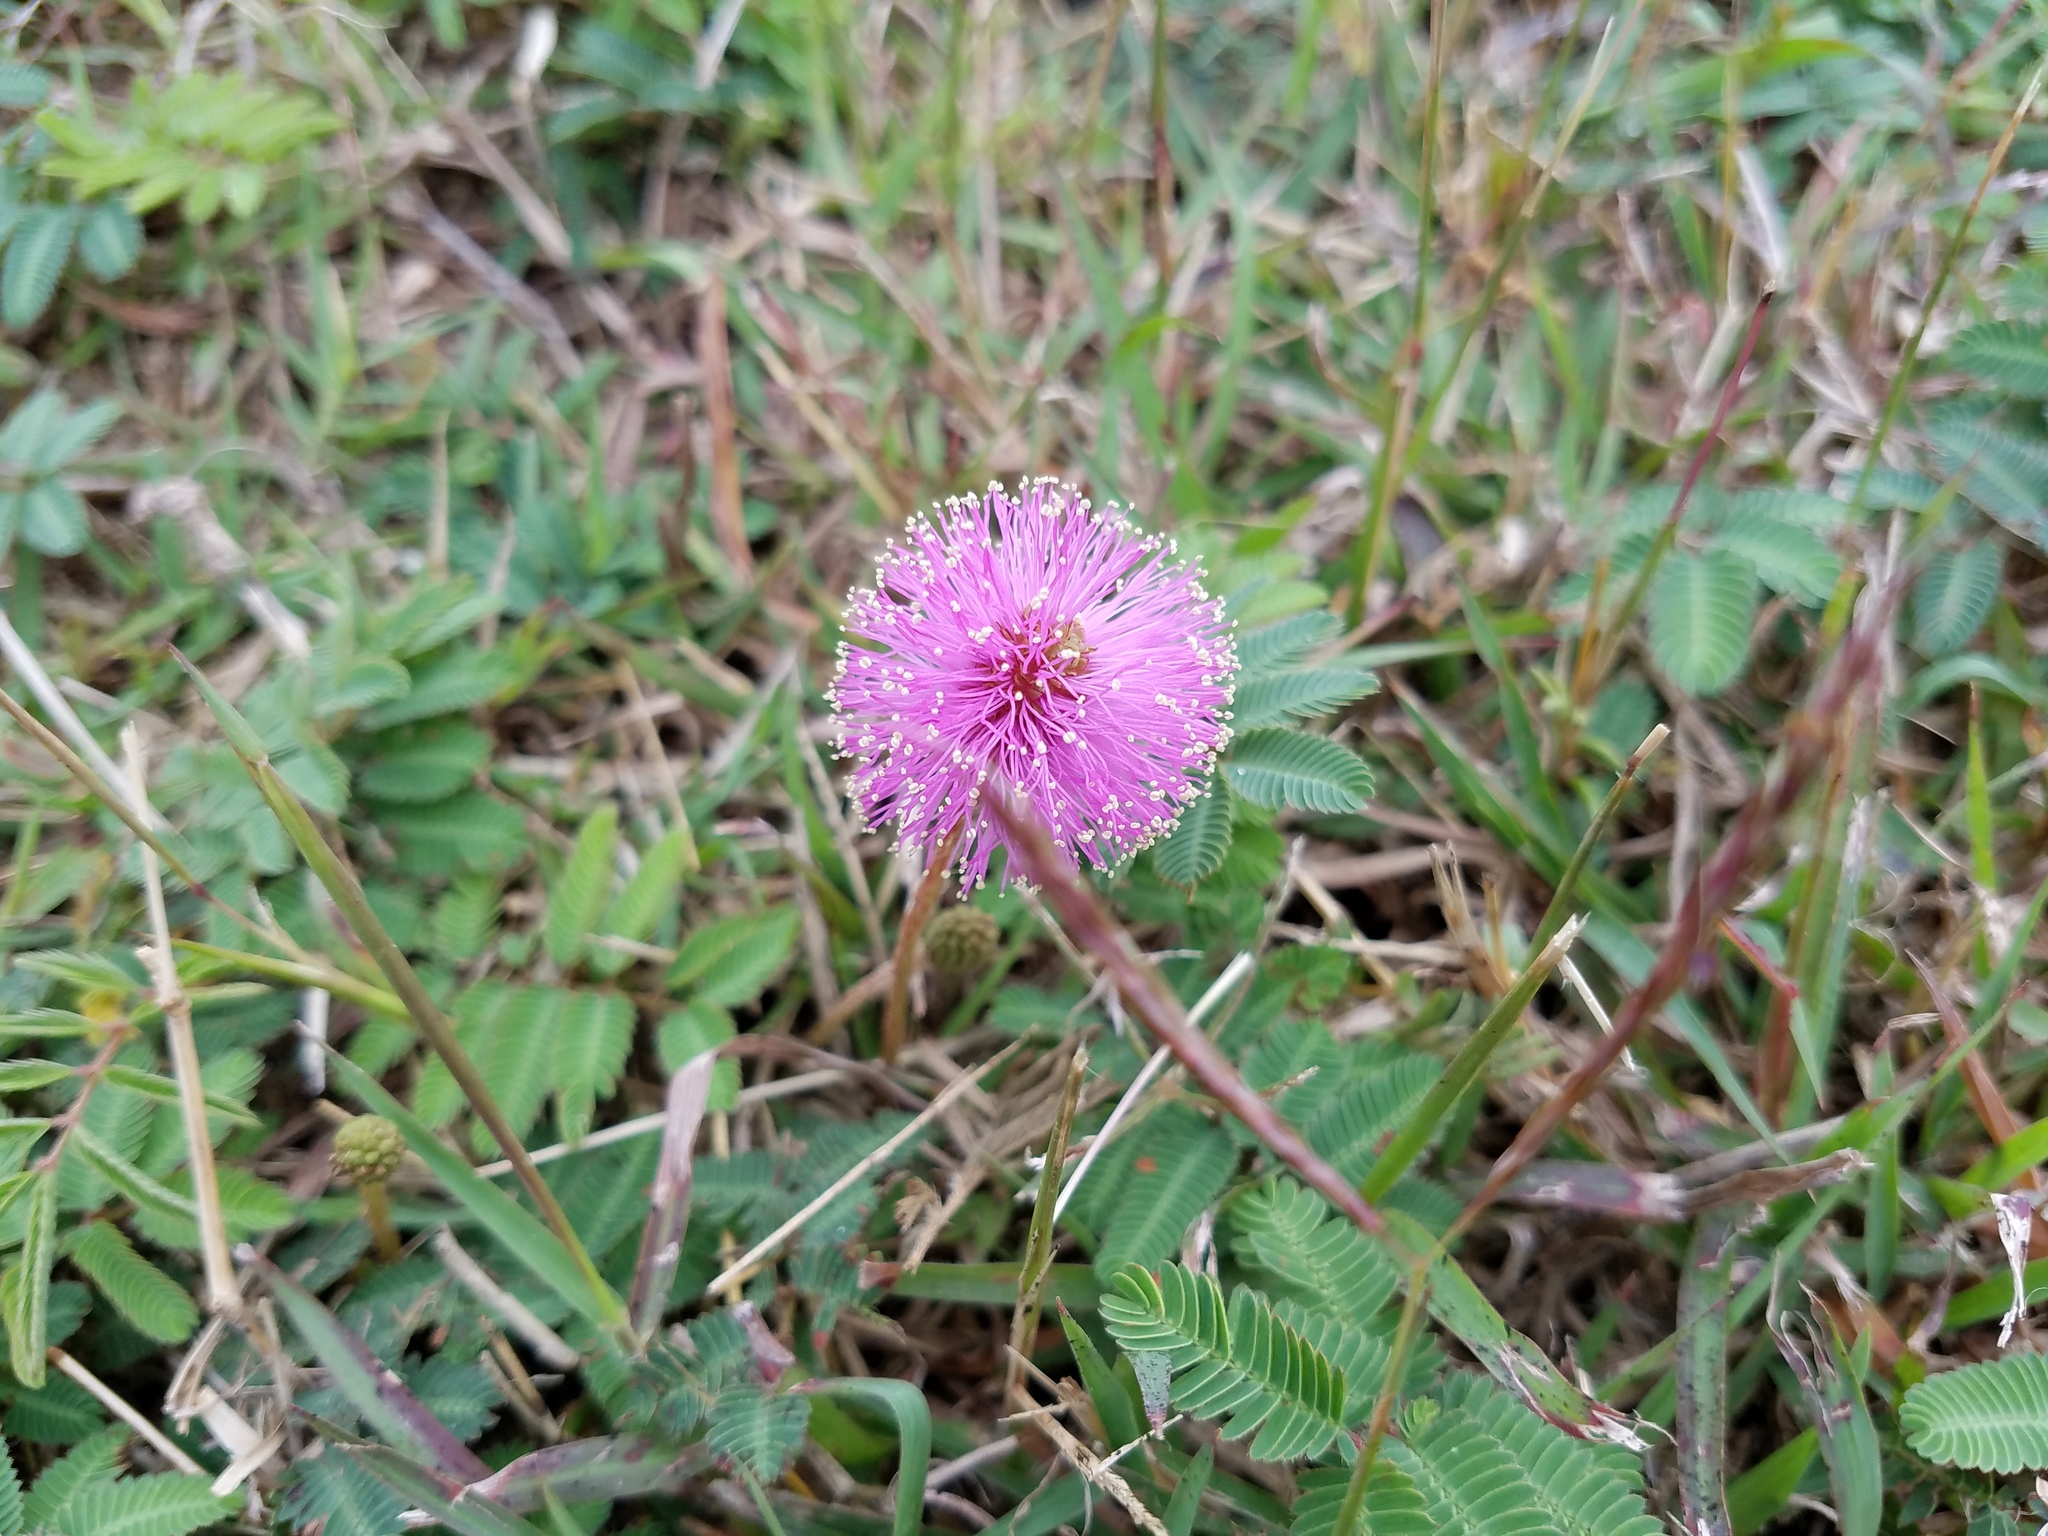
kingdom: Plantae
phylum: Tracheophyta
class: Magnoliopsida
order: Fabales
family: Fabaceae
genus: Mimosa
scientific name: Mimosa strigillosa
